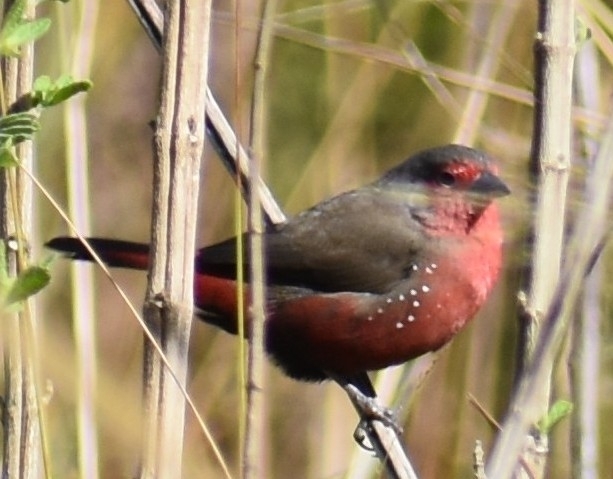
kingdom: Animalia
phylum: Chordata
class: Aves
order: Passeriformes
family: Estrildidae
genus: Lagonosticta
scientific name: Lagonosticta rubricata
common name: African firefinch
